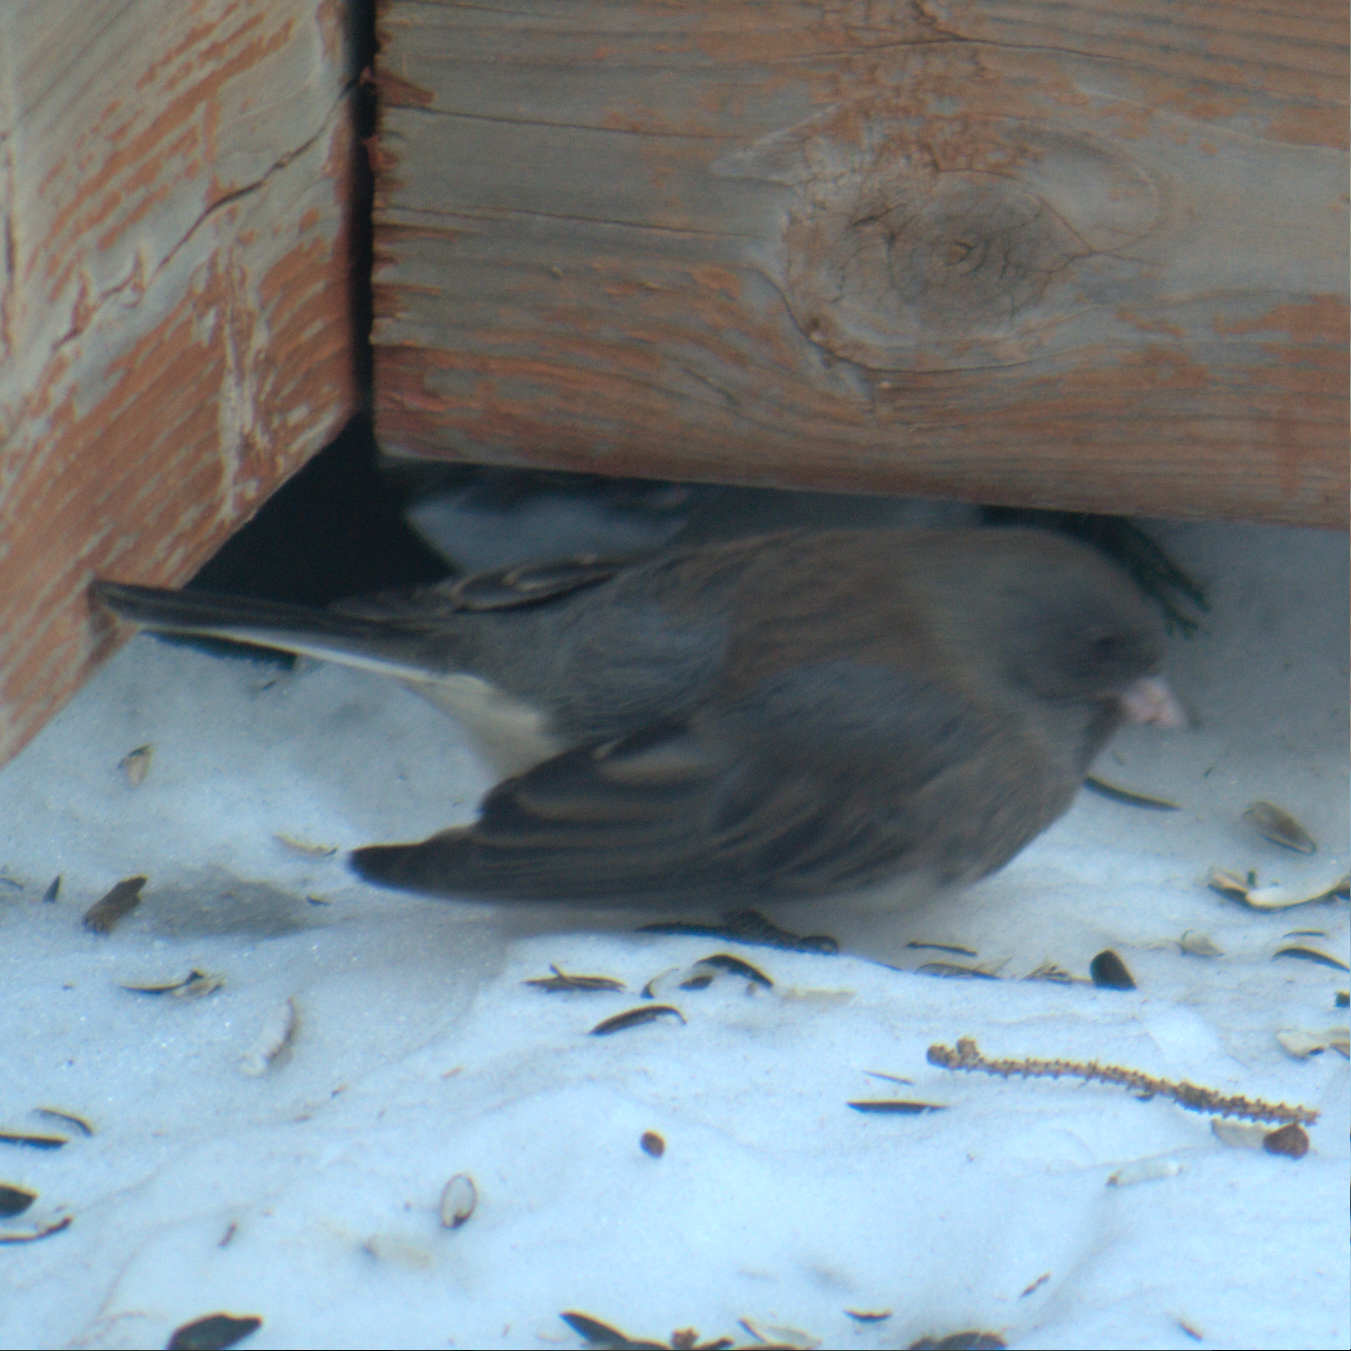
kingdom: Animalia
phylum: Chordata
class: Aves
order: Passeriformes
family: Passerellidae
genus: Junco
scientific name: Junco hyemalis
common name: Dark-eyed junco
